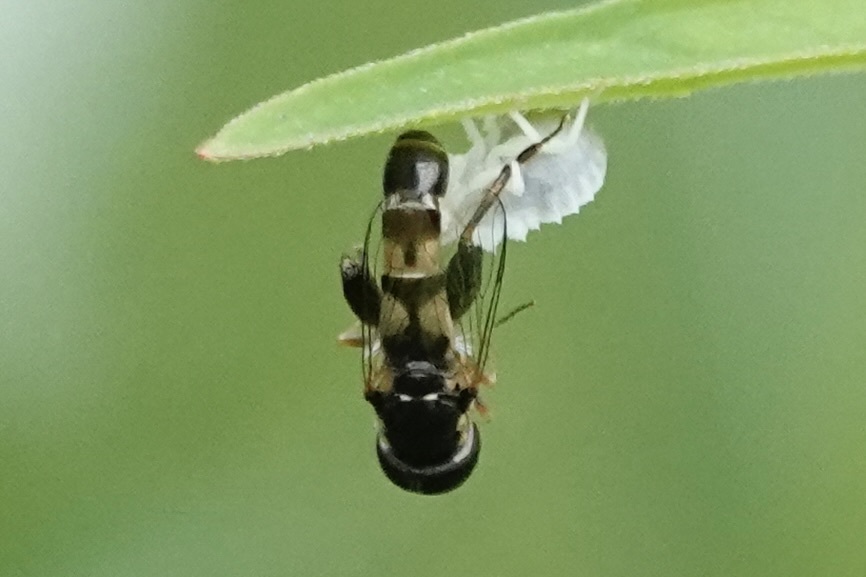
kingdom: Animalia
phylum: Arthropoda
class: Insecta
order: Diptera
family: Syrphidae
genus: Syritta
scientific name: Syritta pipiens
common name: Hover fly
